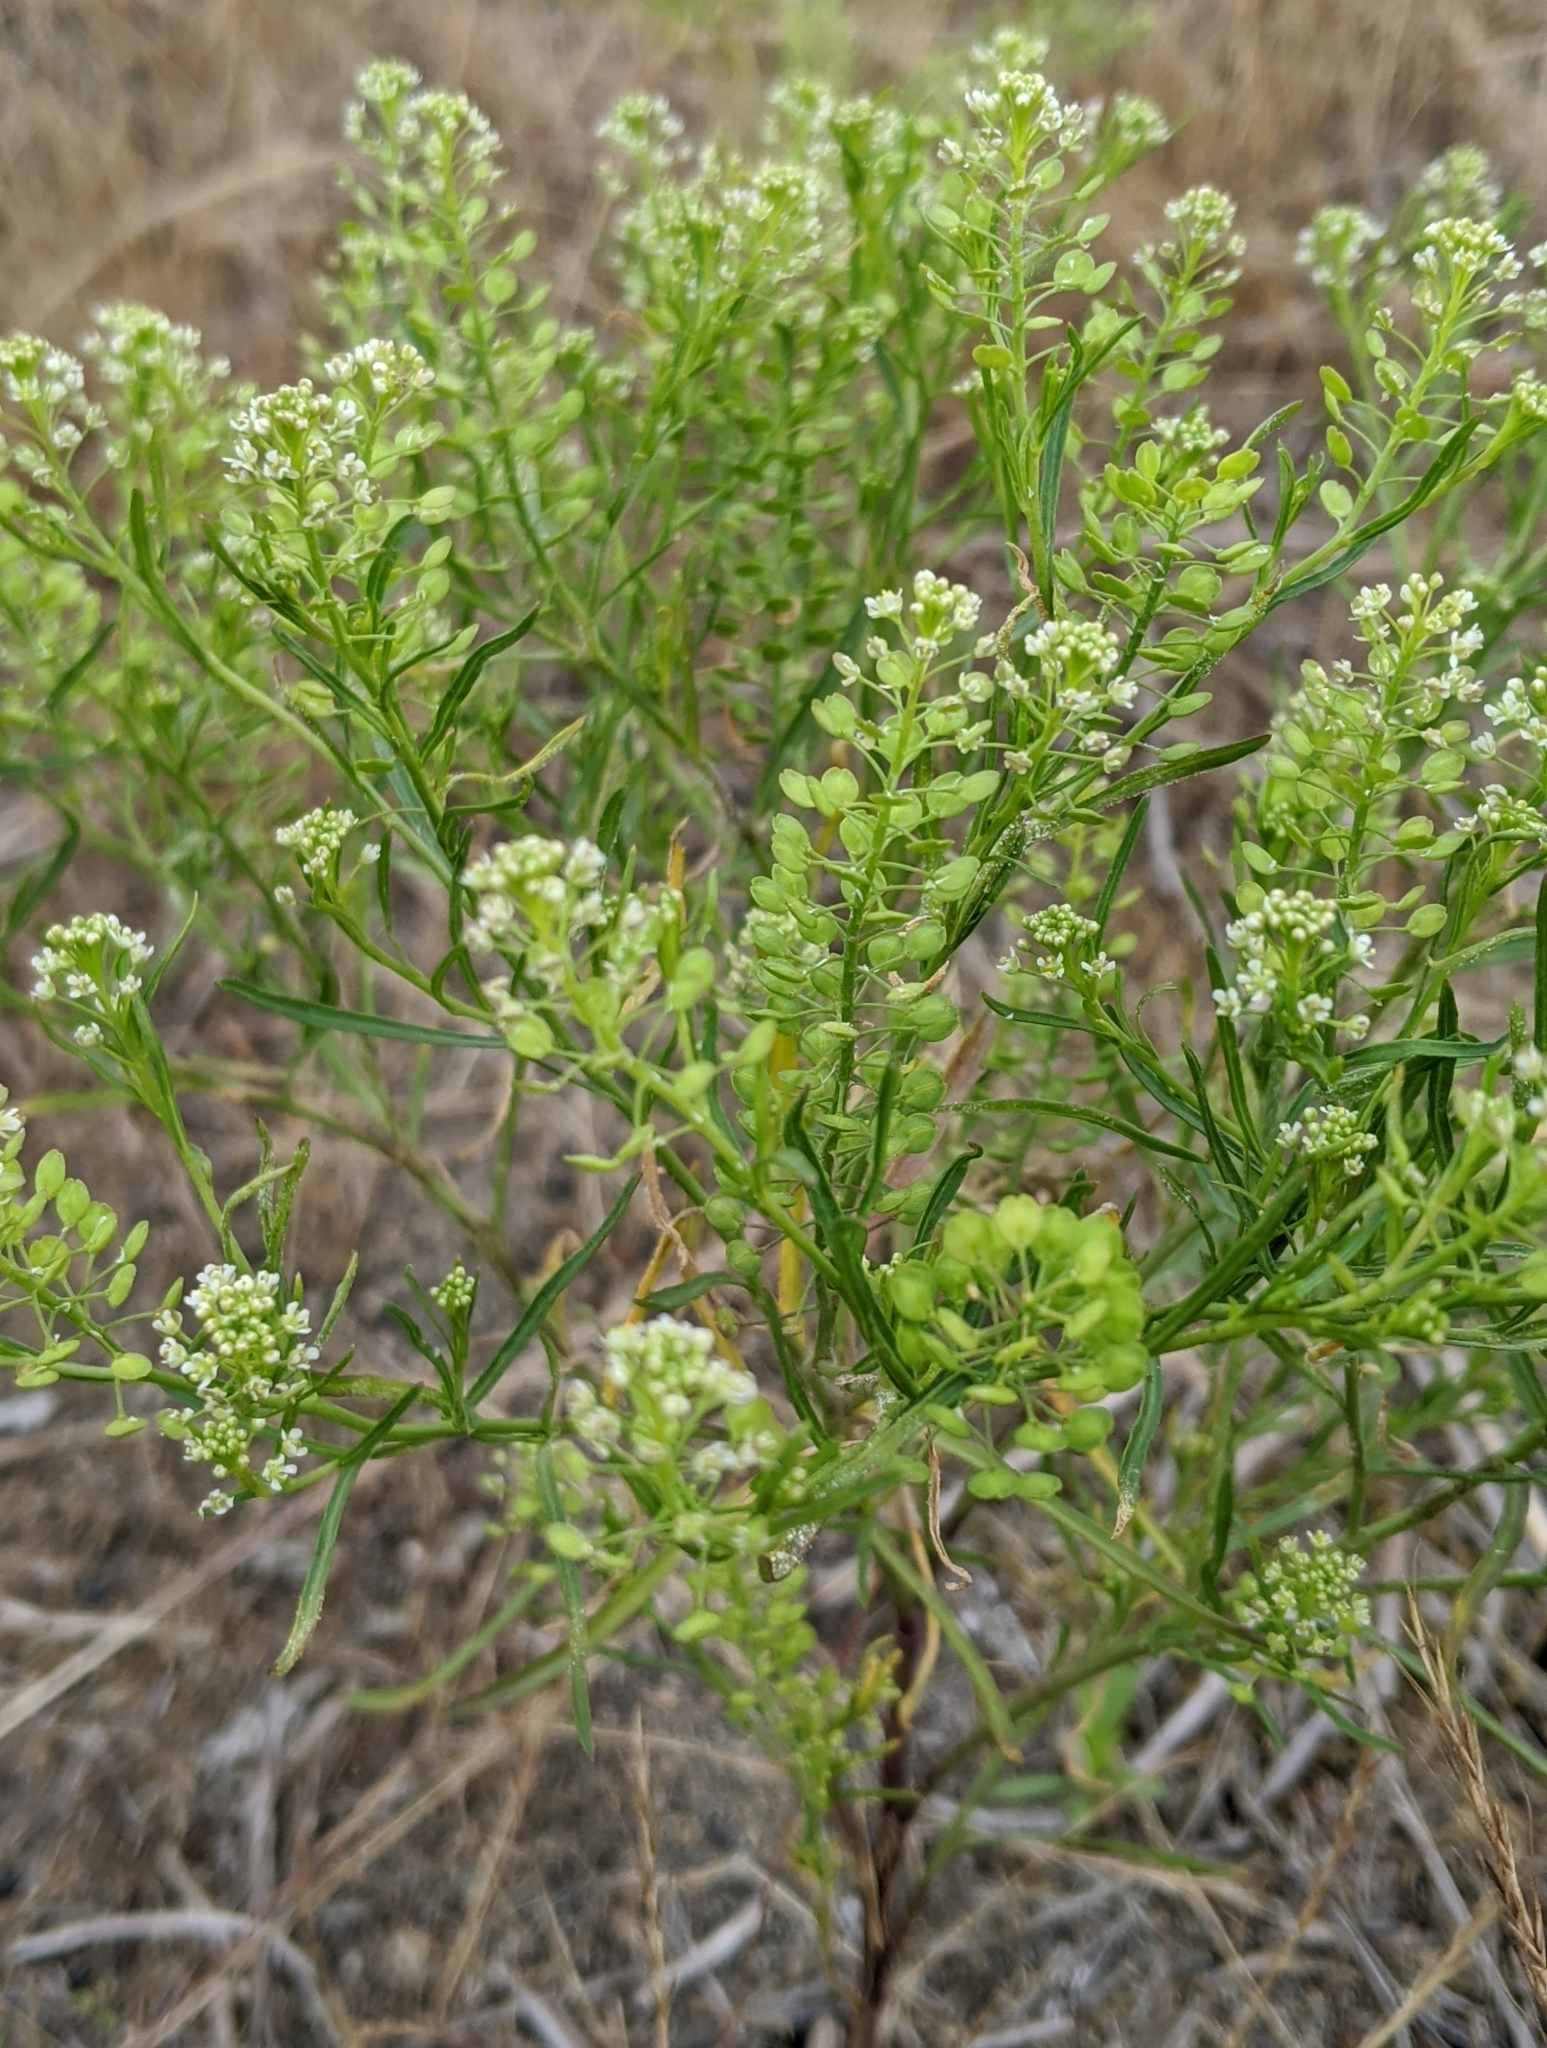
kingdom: Plantae
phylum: Tracheophyta
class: Magnoliopsida
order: Brassicales
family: Brassicaceae
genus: Lepidium
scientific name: Lepidium virginicum
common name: Least pepperwort
